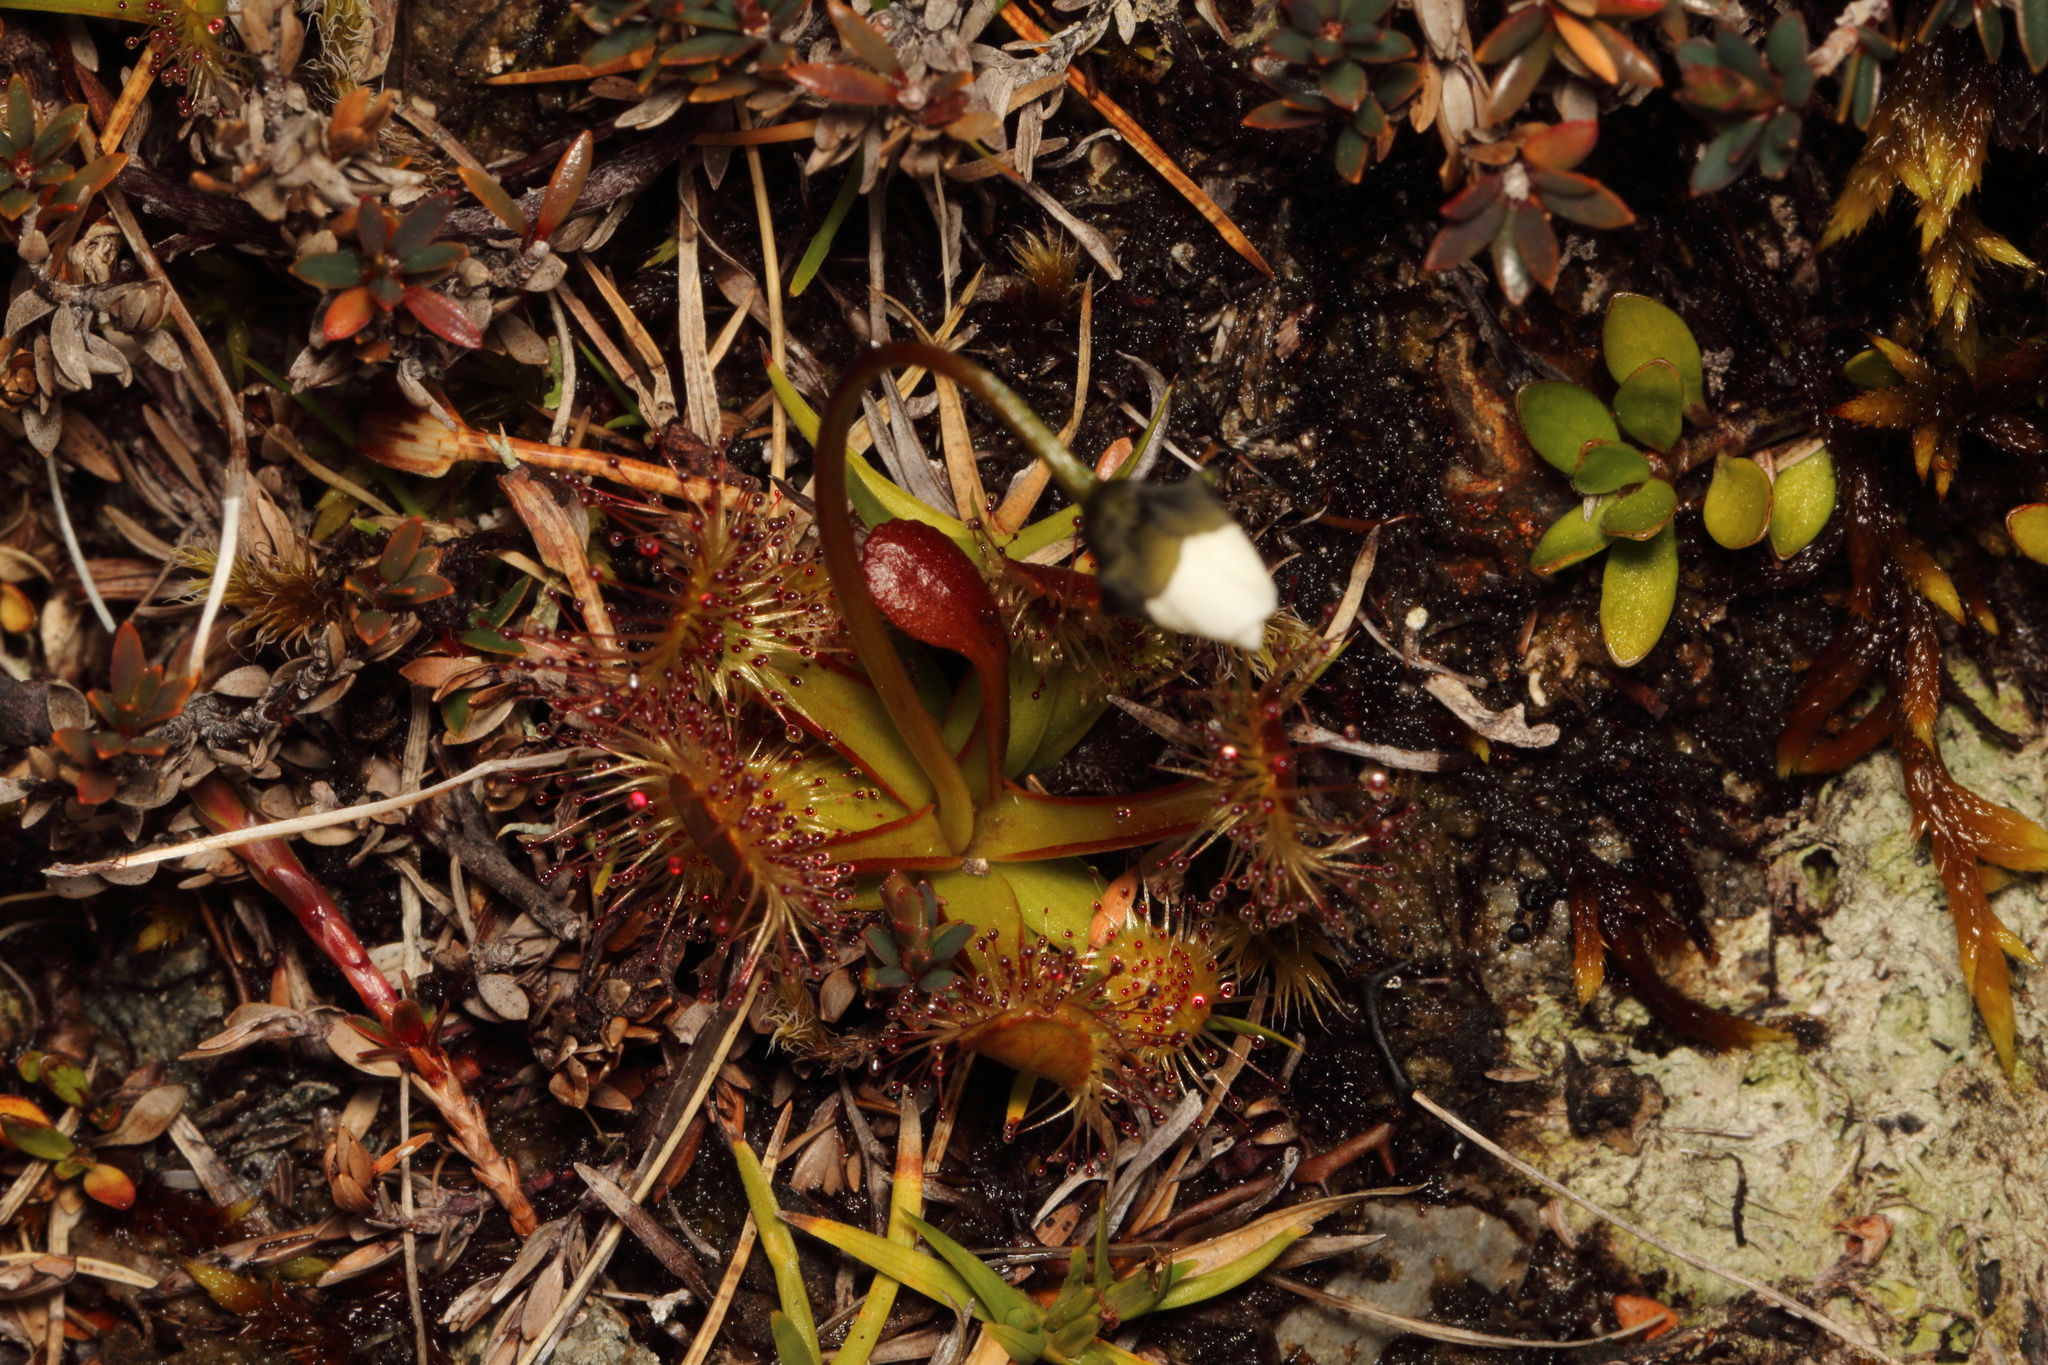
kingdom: Plantae
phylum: Tracheophyta
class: Magnoliopsida
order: Caryophyllales
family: Droseraceae
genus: Drosera
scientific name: Drosera stenopetala
